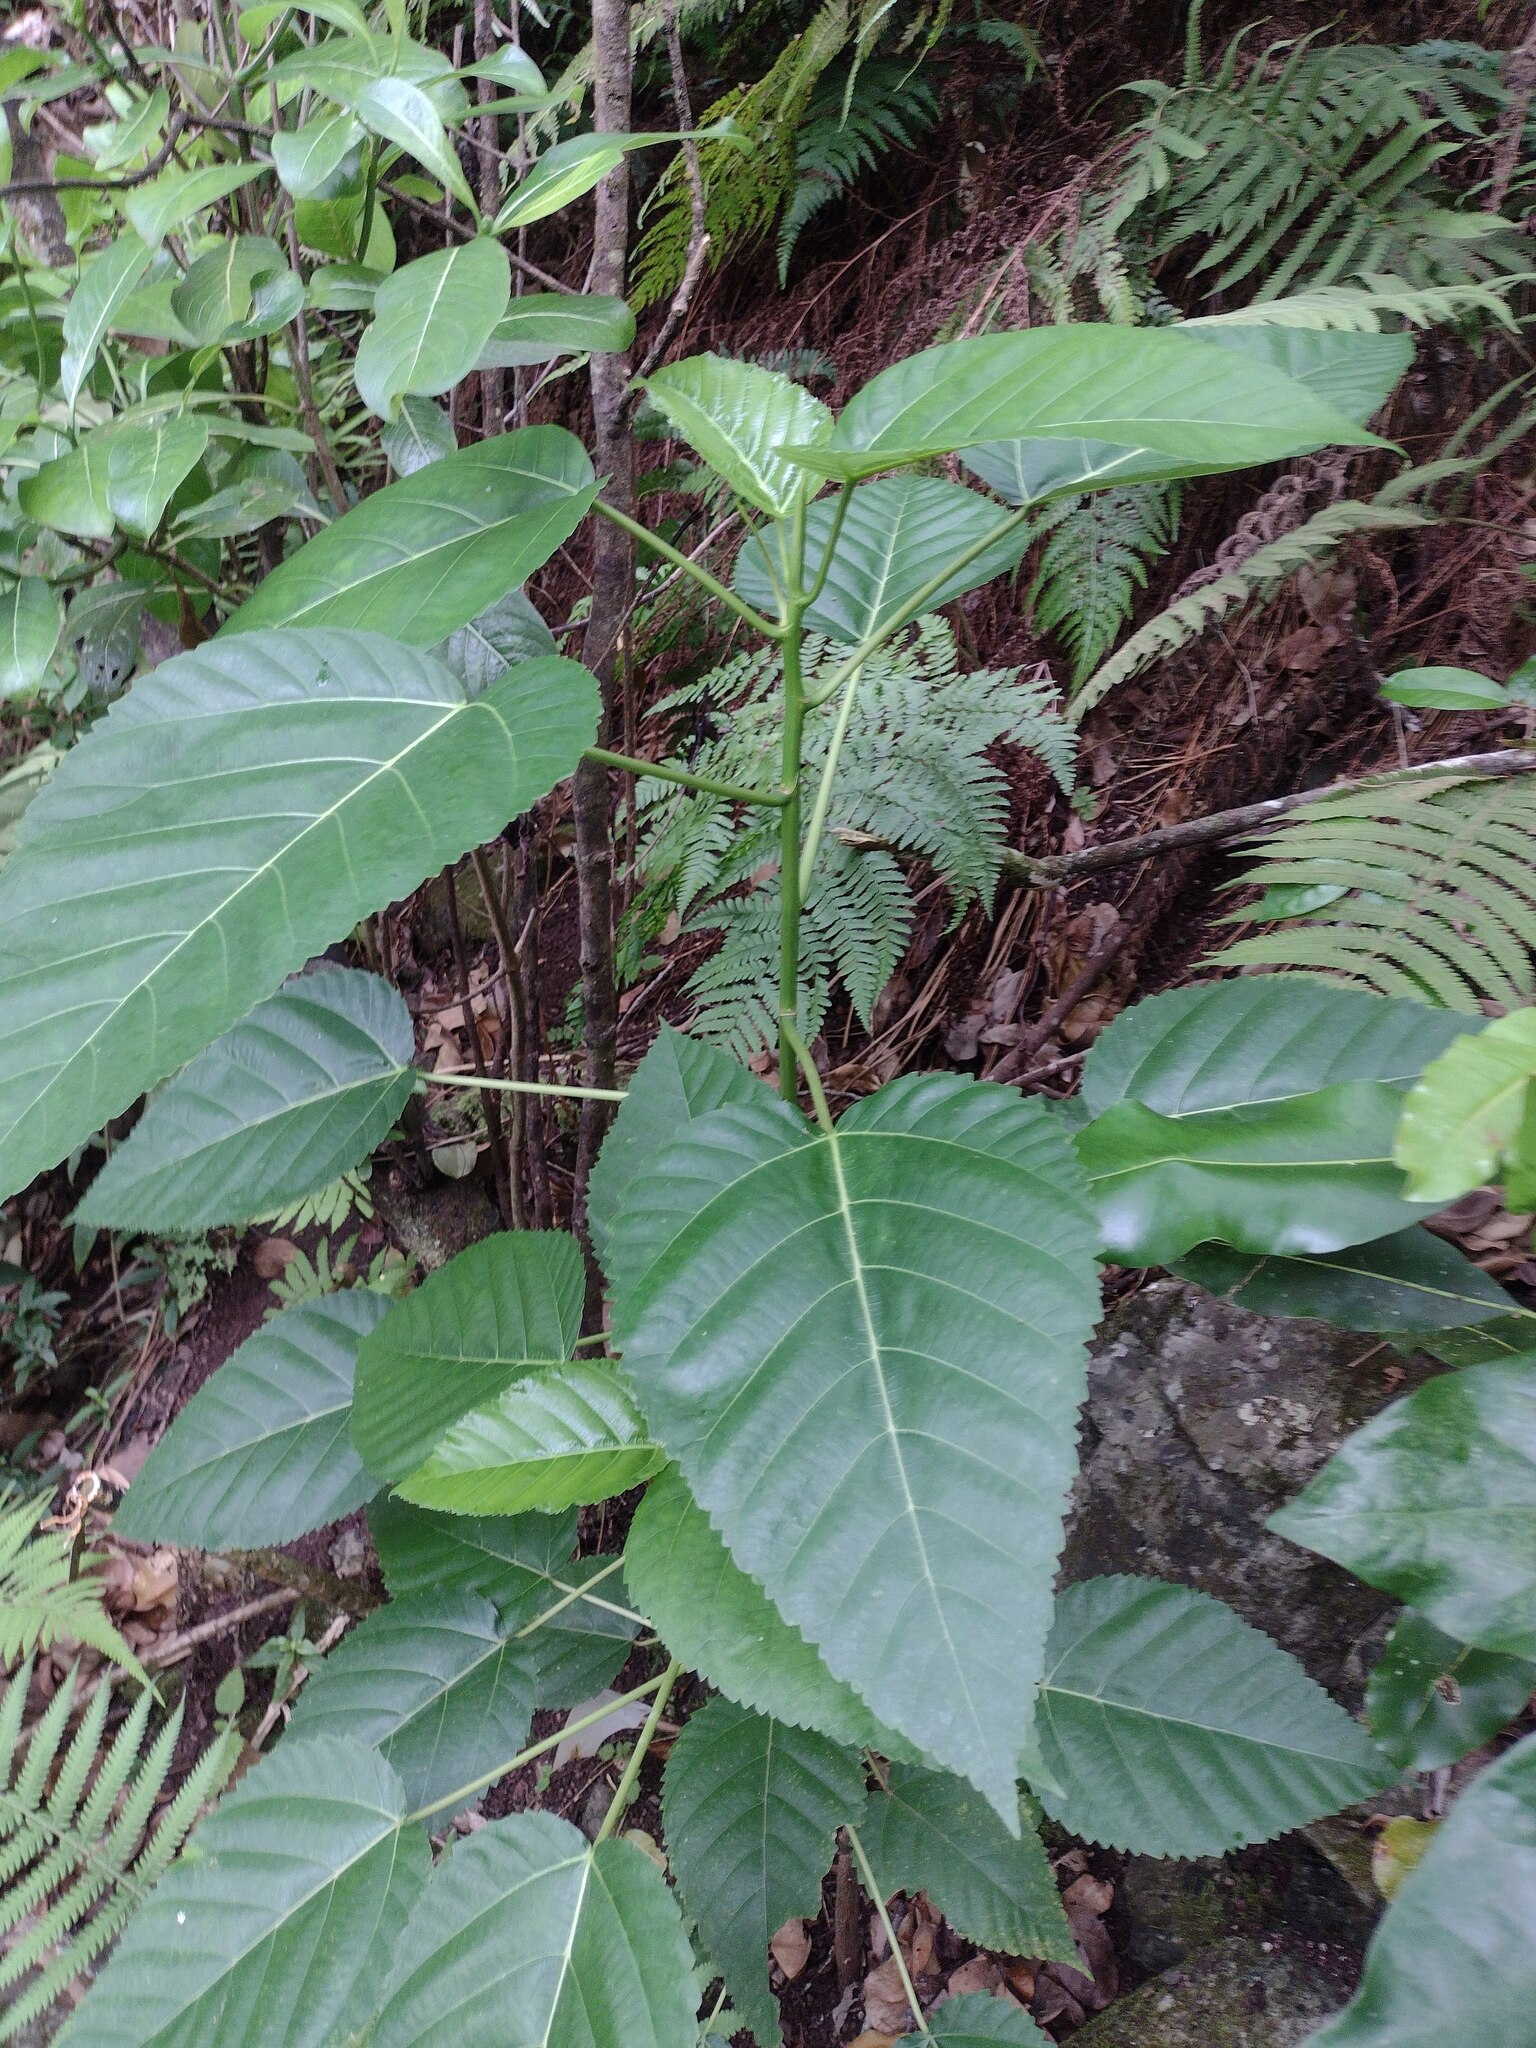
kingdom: Plantae
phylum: Tracheophyta
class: Magnoliopsida
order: Rosales
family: Urticaceae
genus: Touchardia
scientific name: Touchardia oahuensis
